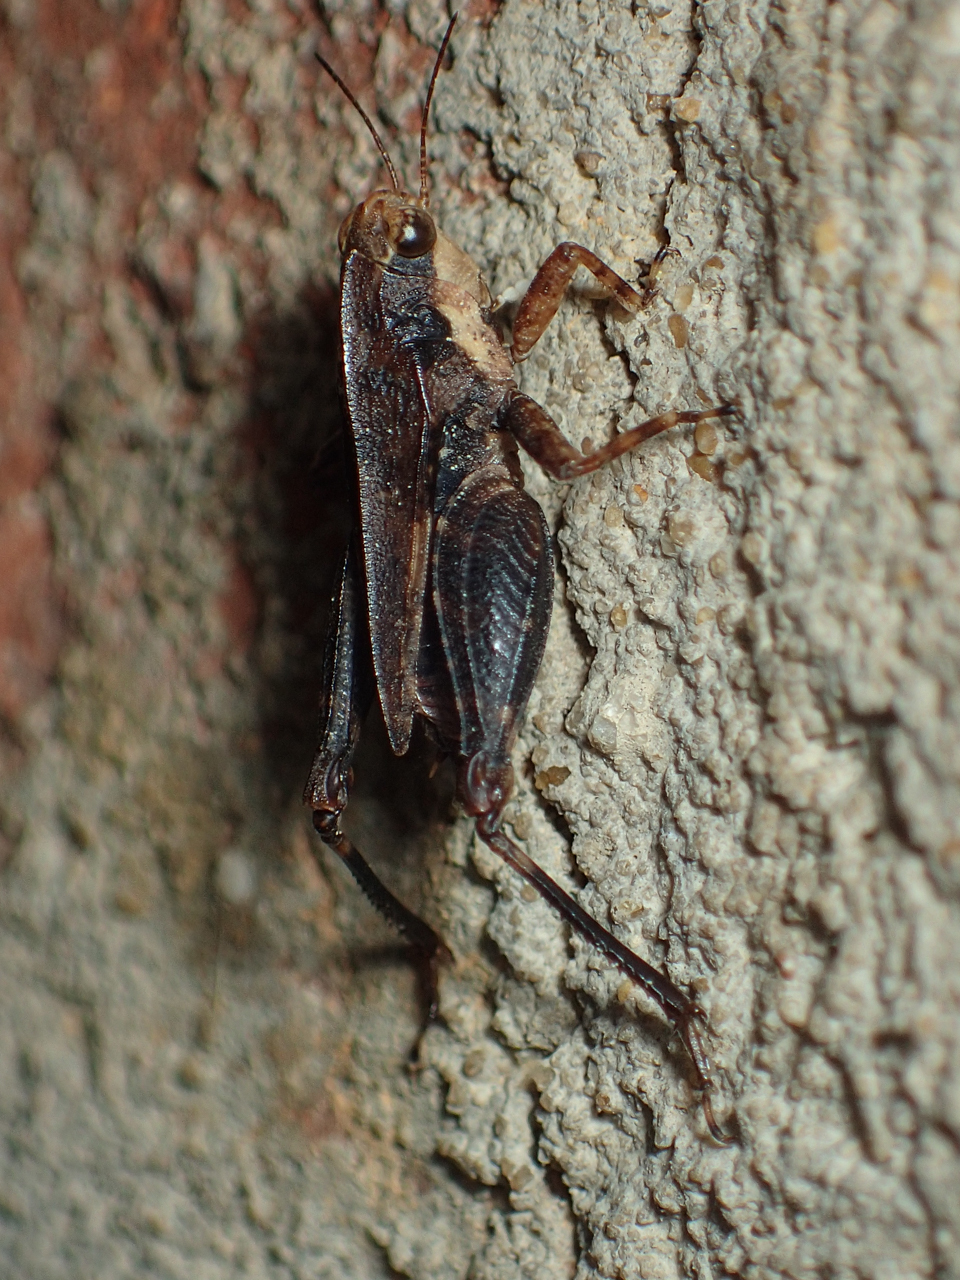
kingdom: Animalia
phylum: Arthropoda
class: Insecta
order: Orthoptera
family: Tetrigidae
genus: Tettigidea
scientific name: Tettigidea laterale
